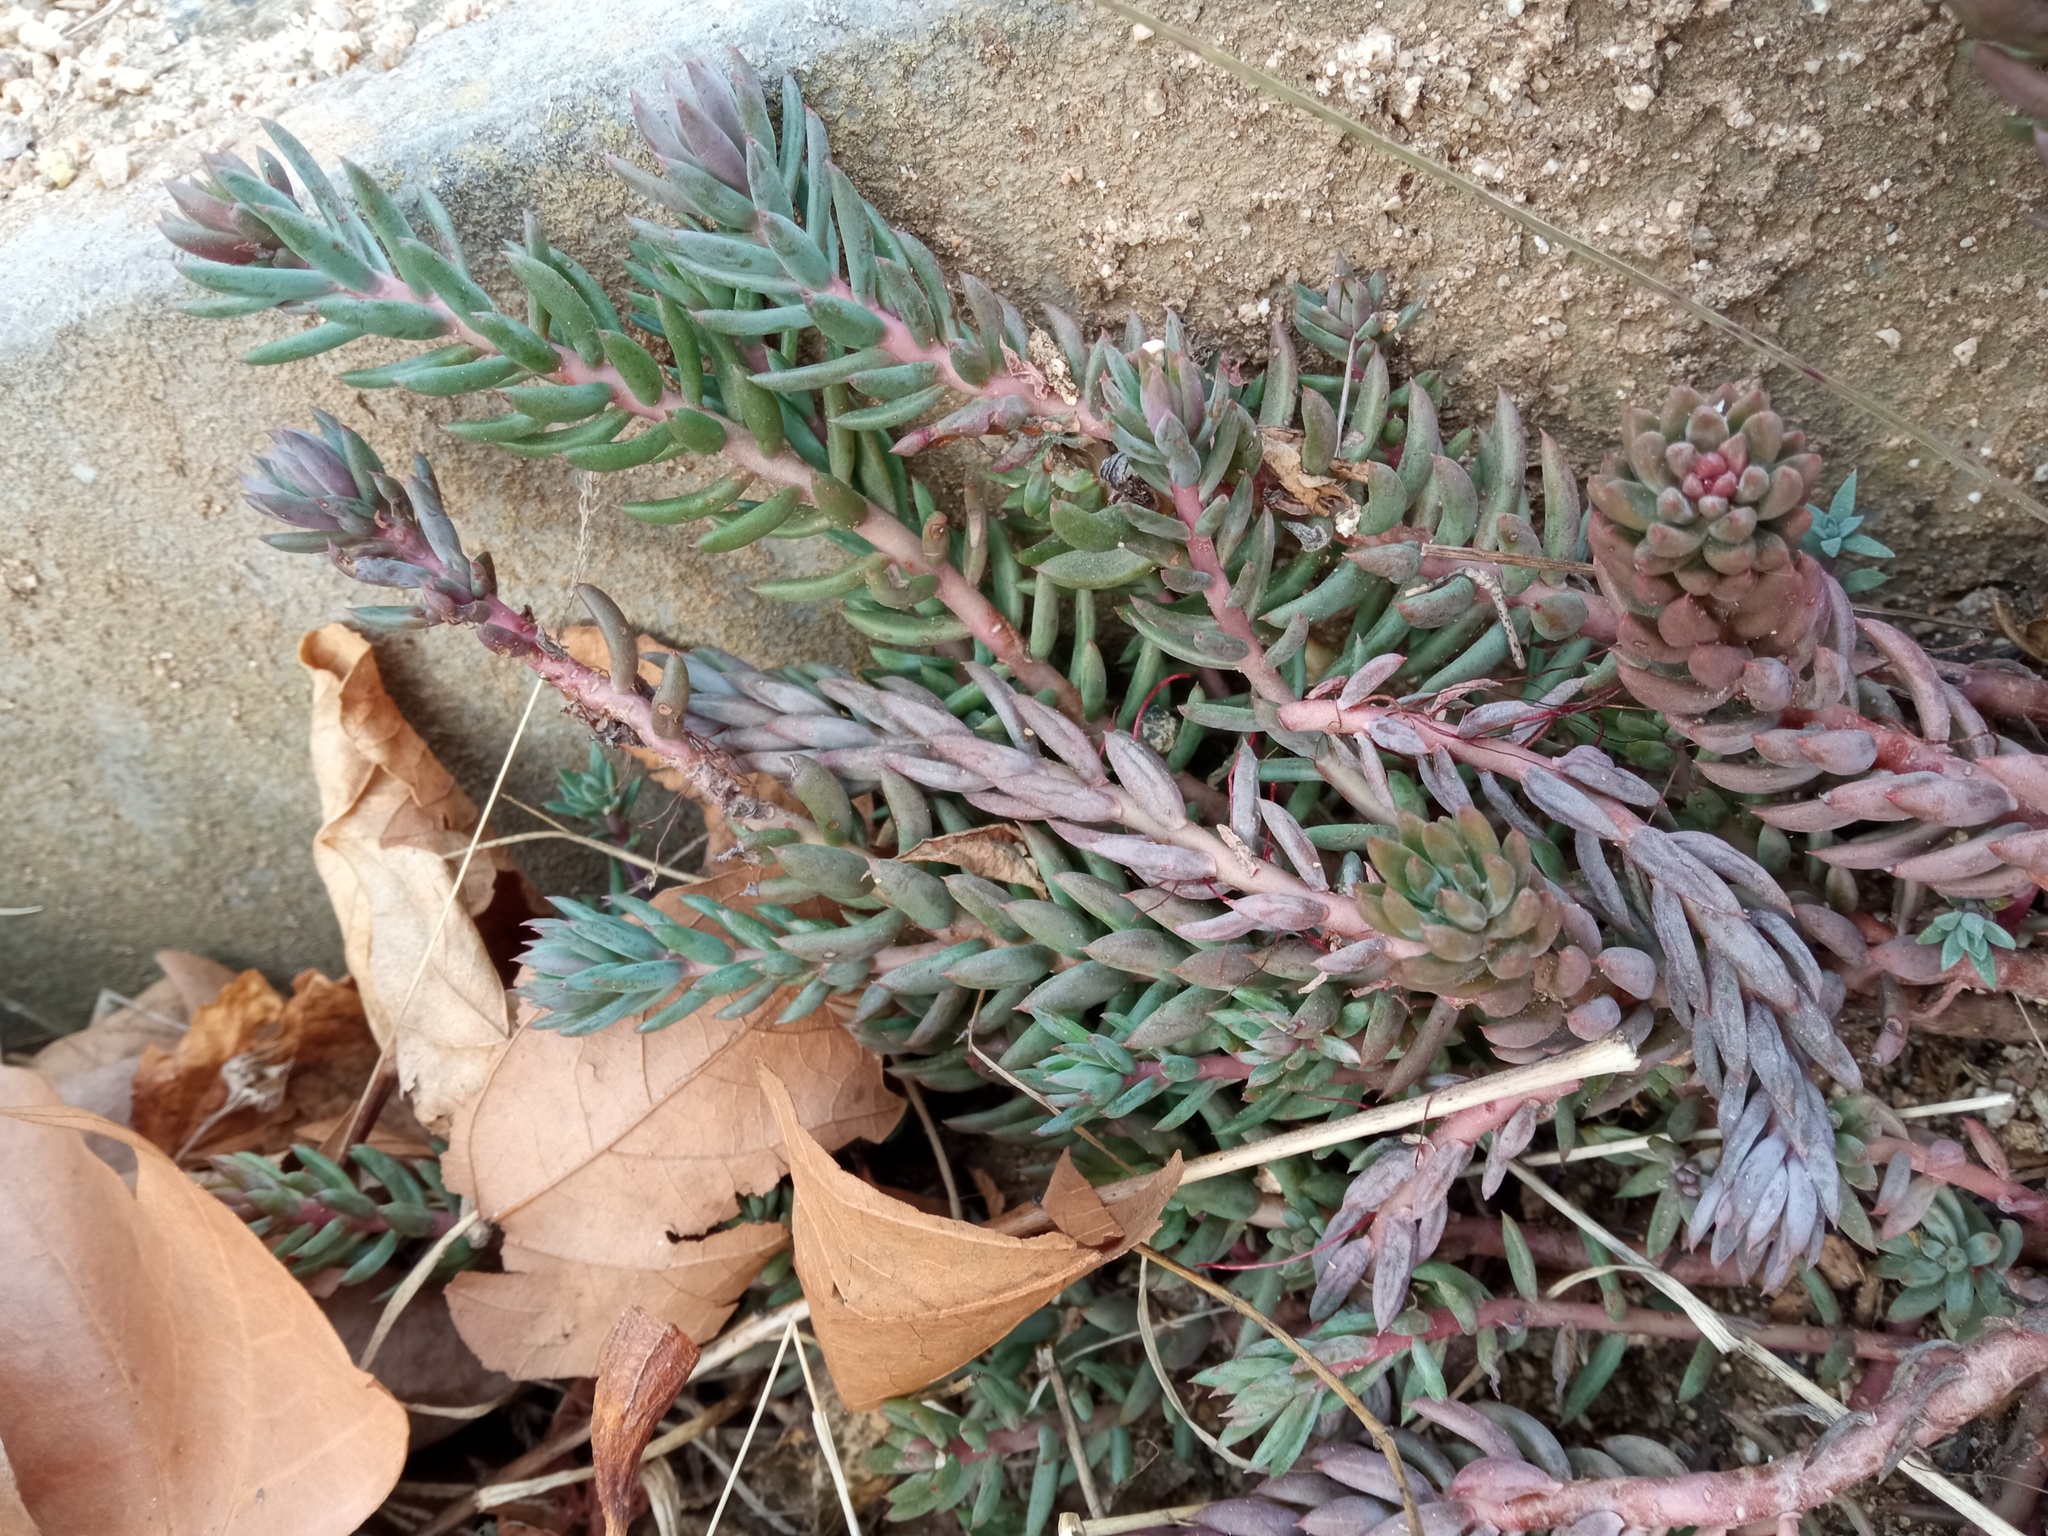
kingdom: Plantae
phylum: Tracheophyta
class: Magnoliopsida
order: Saxifragales
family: Crassulaceae
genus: Petrosedum
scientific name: Petrosedum sediforme
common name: Pale stonecrop
